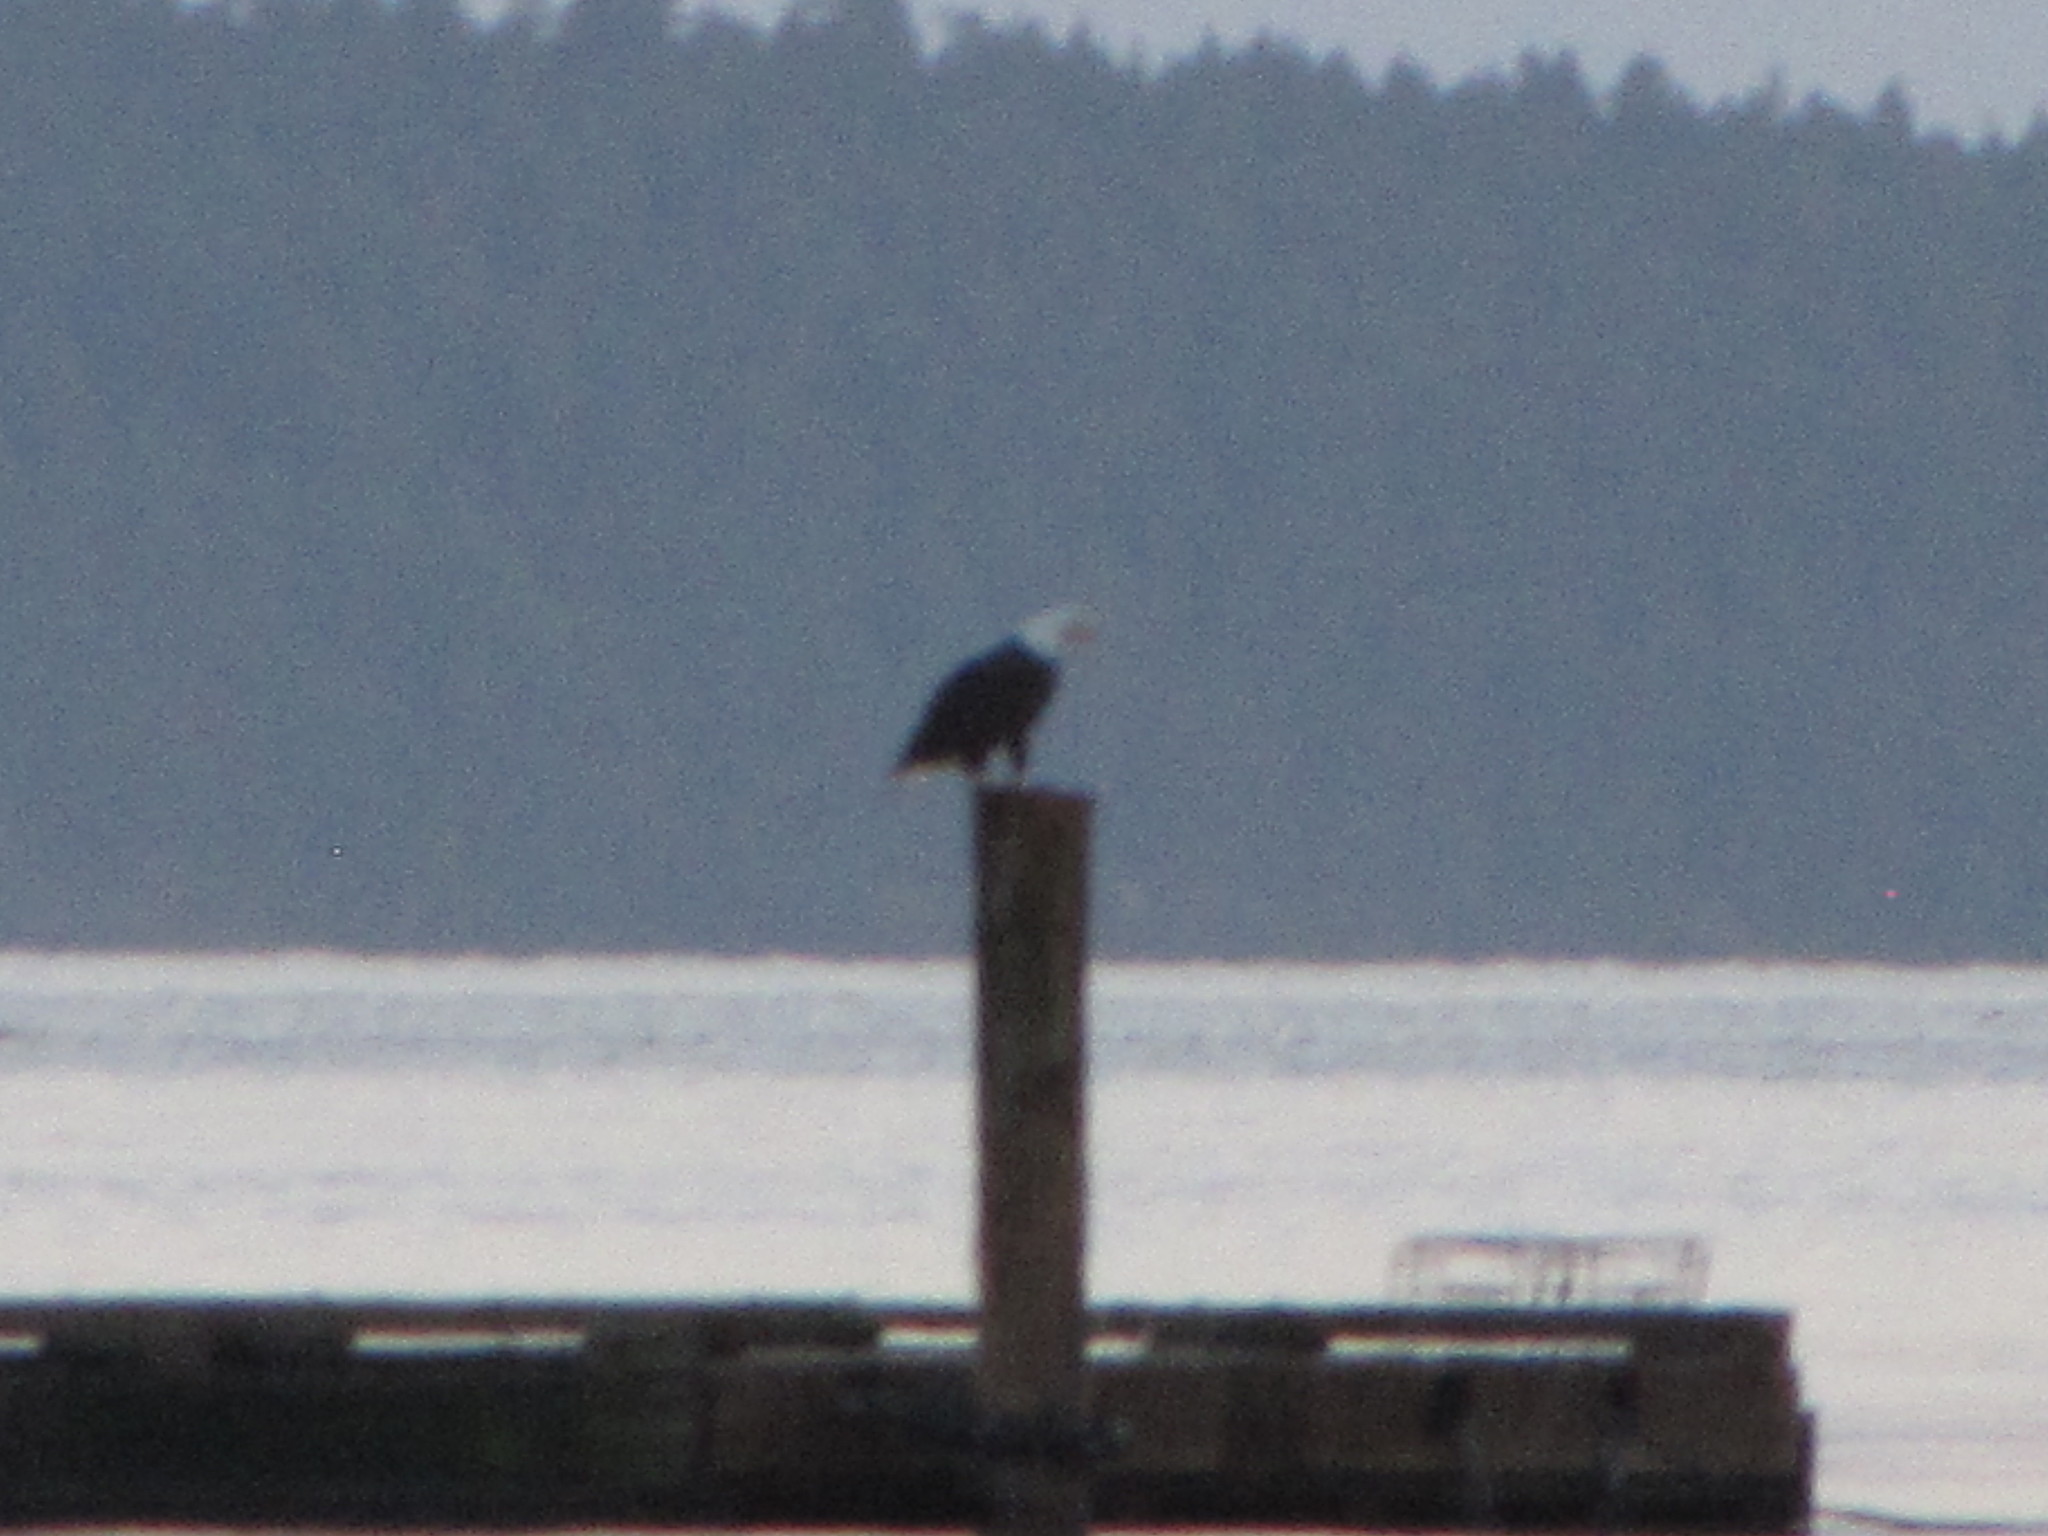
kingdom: Animalia
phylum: Chordata
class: Aves
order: Accipitriformes
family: Accipitridae
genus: Haliaeetus
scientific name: Haliaeetus leucocephalus
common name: Bald eagle
